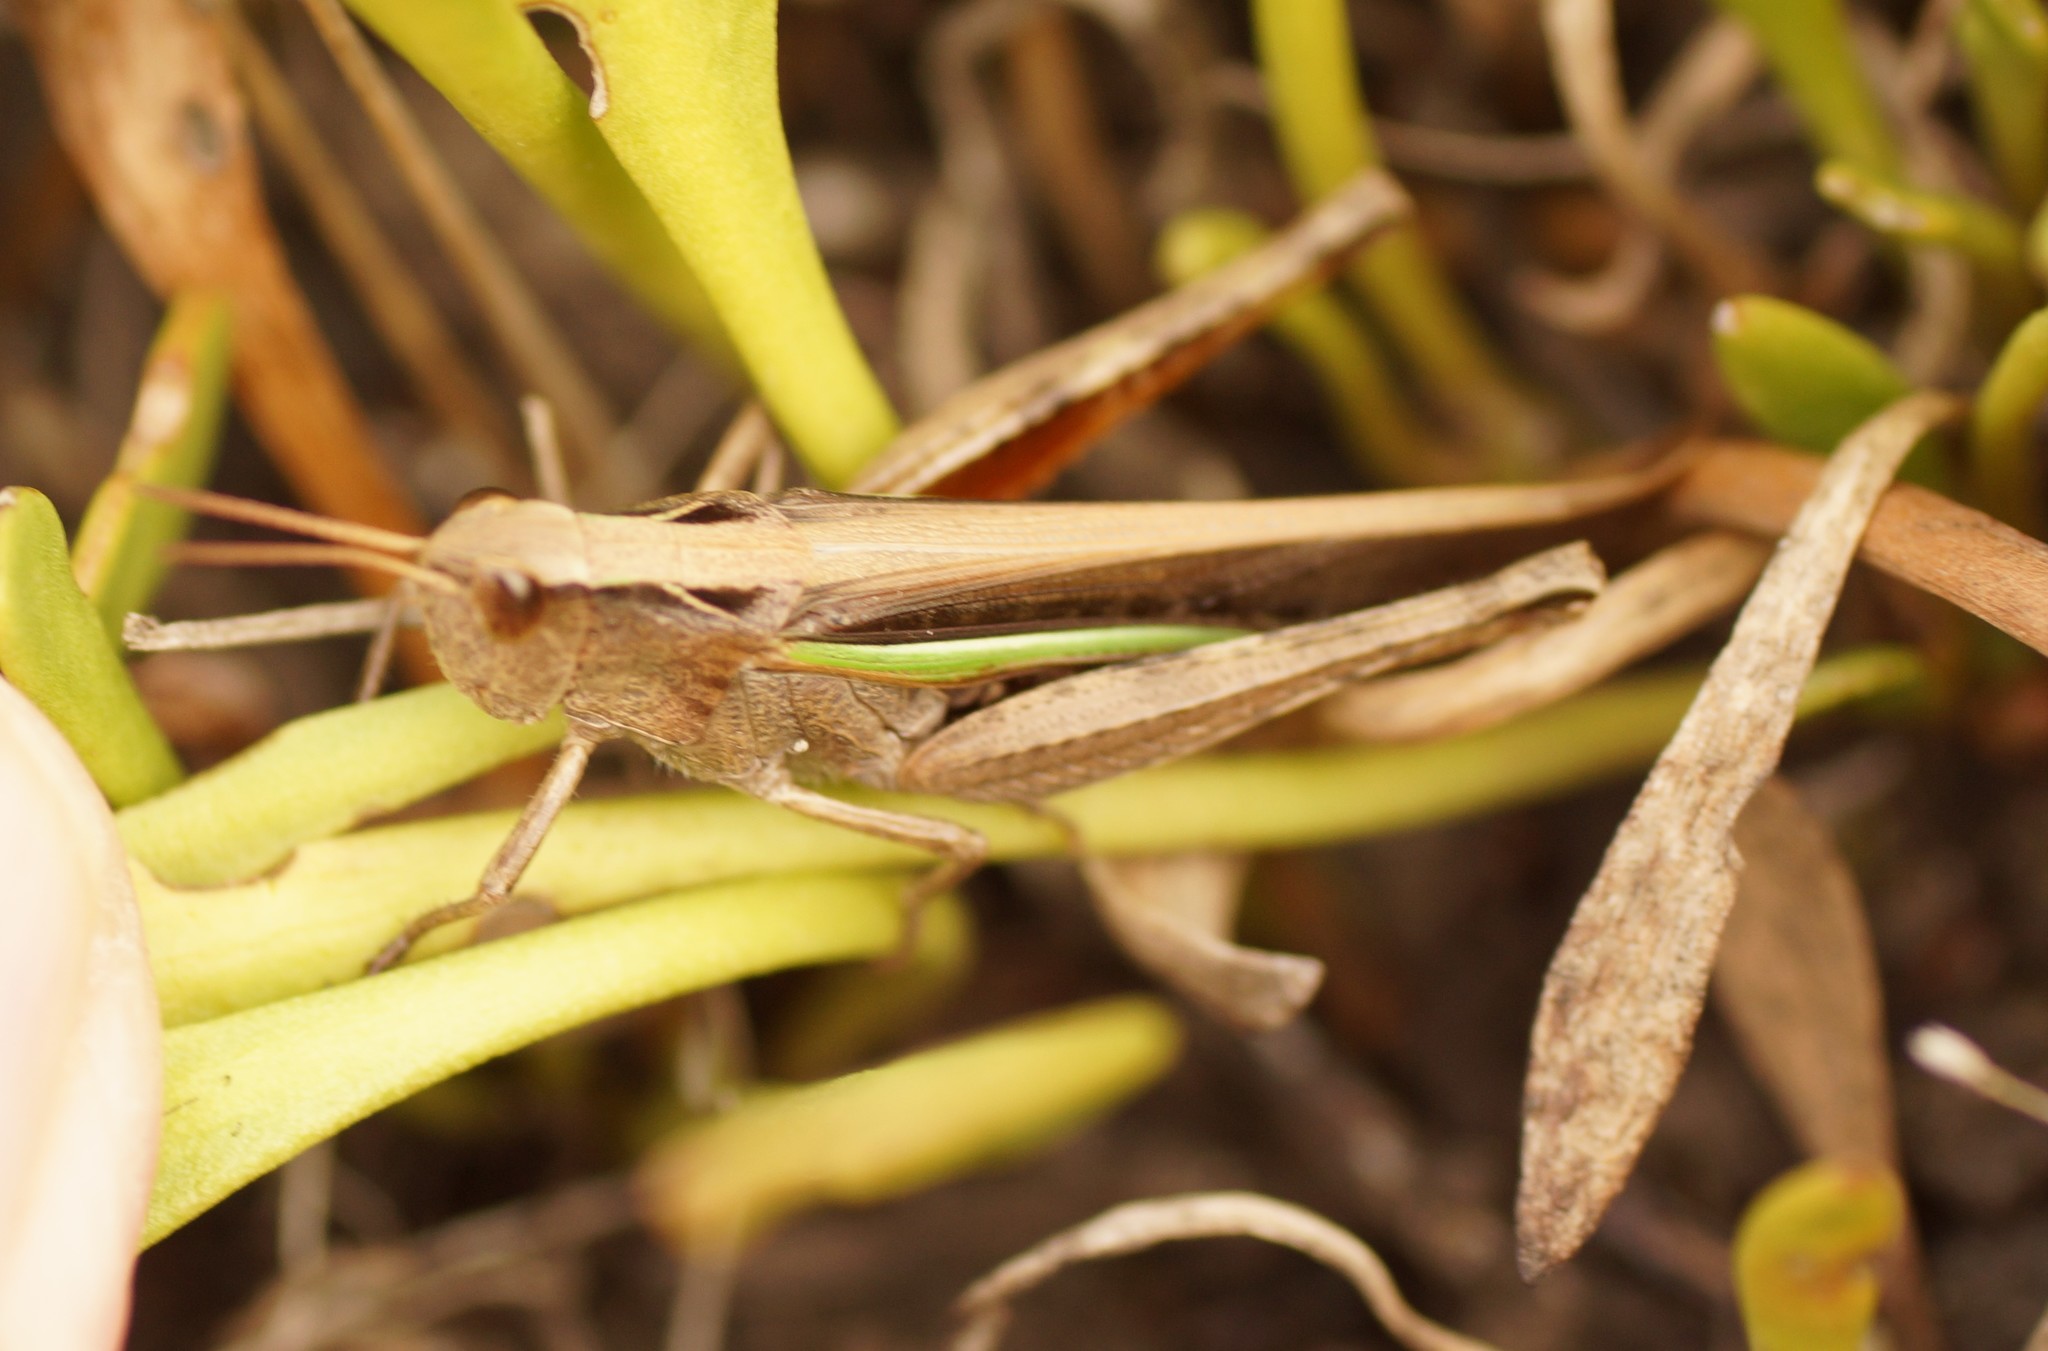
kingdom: Animalia
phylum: Arthropoda
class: Insecta
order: Orthoptera
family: Acrididae
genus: Schizobothrus
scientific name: Schizobothrus flavovittatus
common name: Disappearing grasshopper
